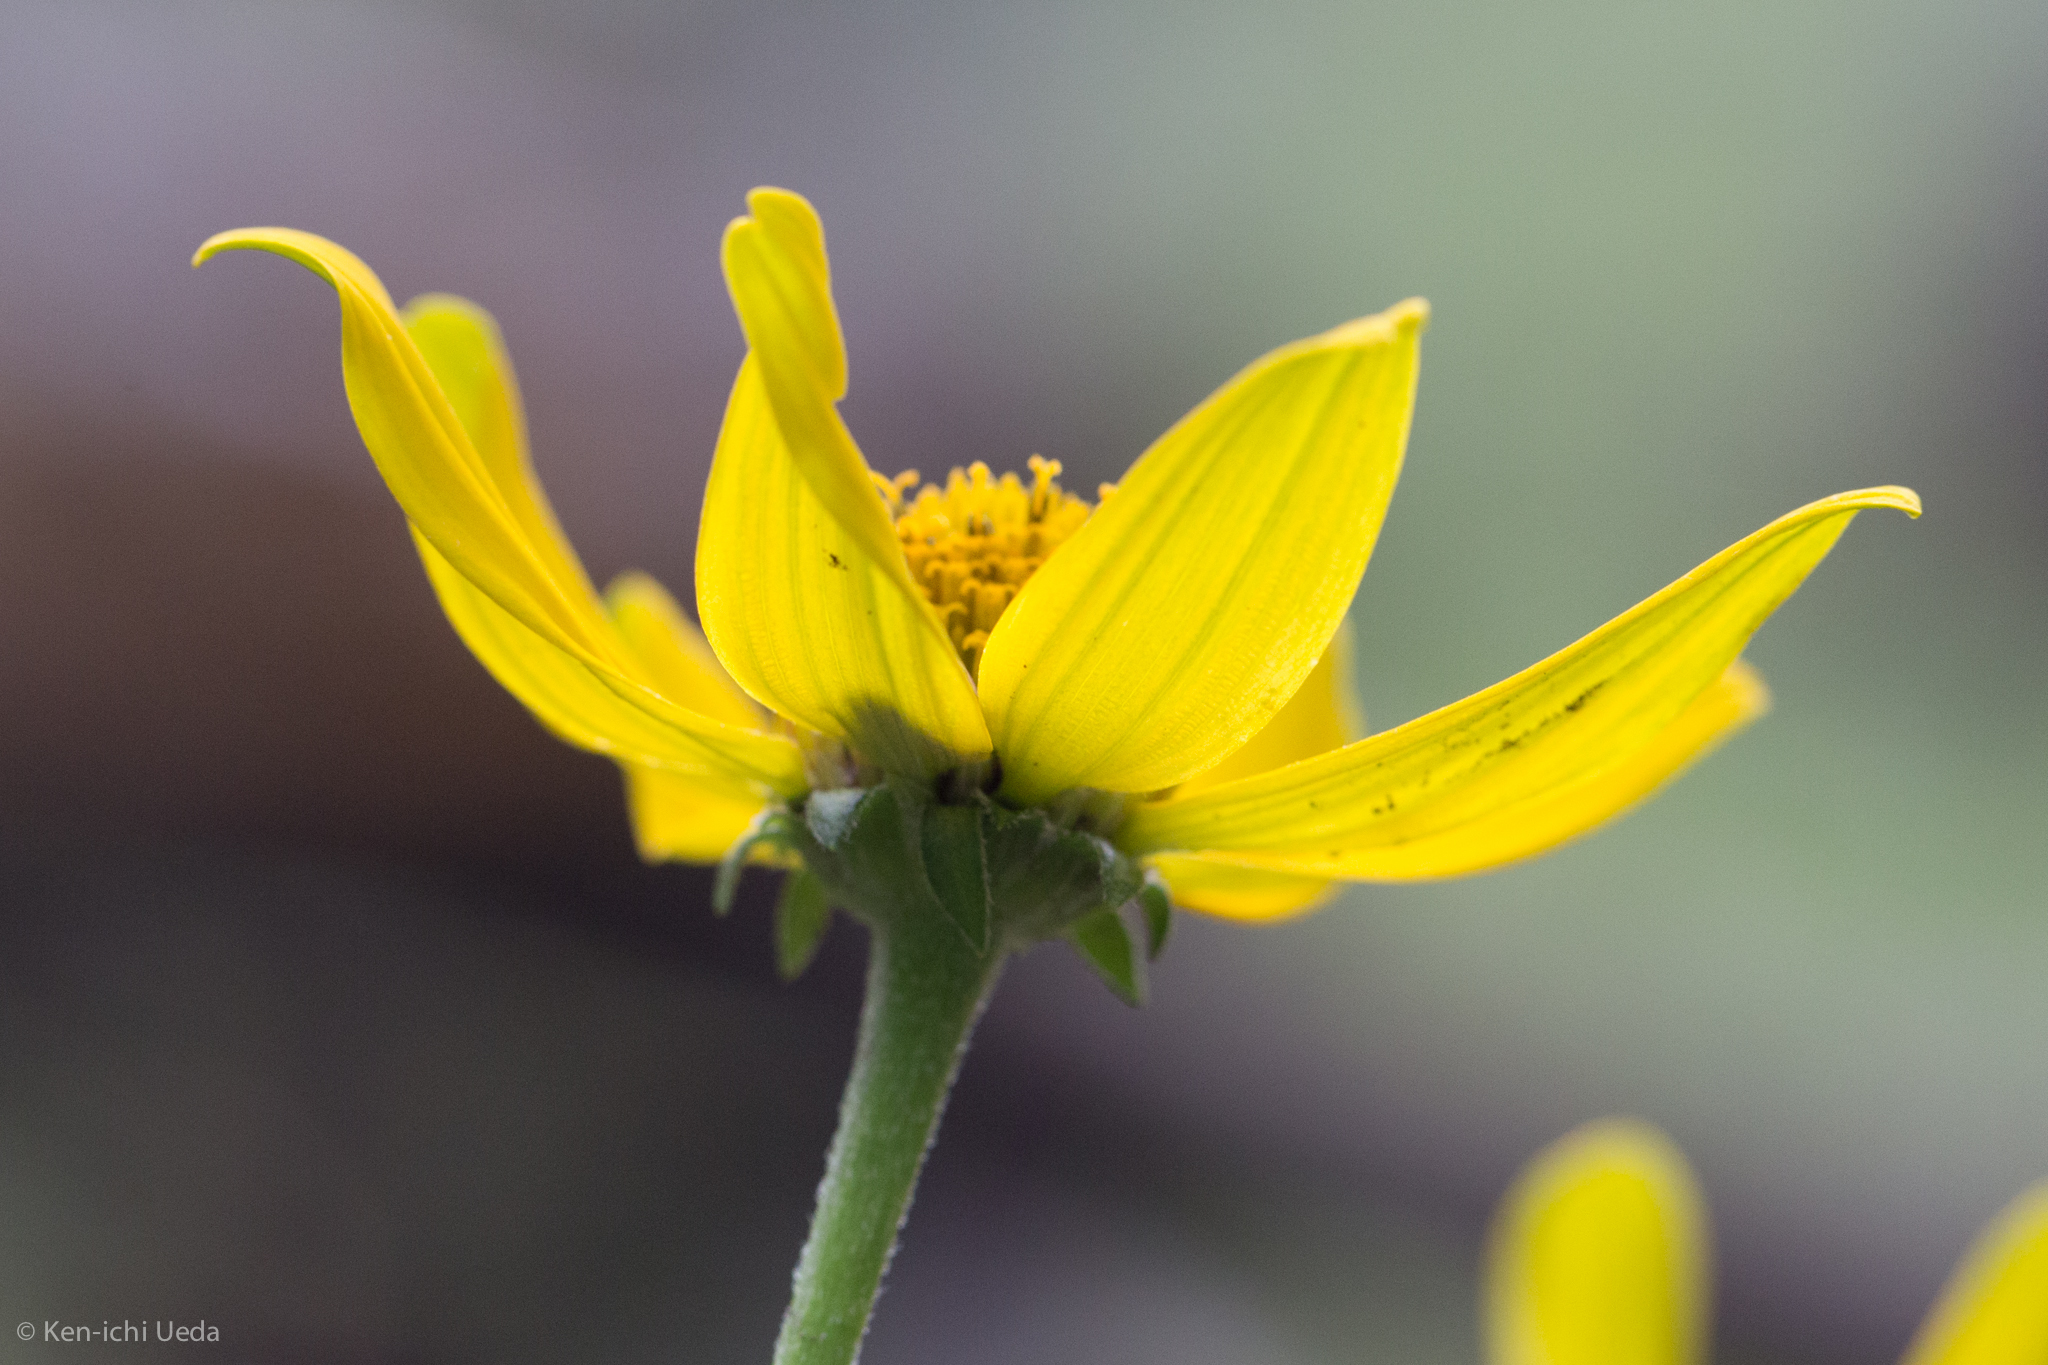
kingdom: Plantae
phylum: Tracheophyta
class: Magnoliopsida
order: Asterales
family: Asteraceae
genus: Heliopsis
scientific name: Heliopsis parvifolia
